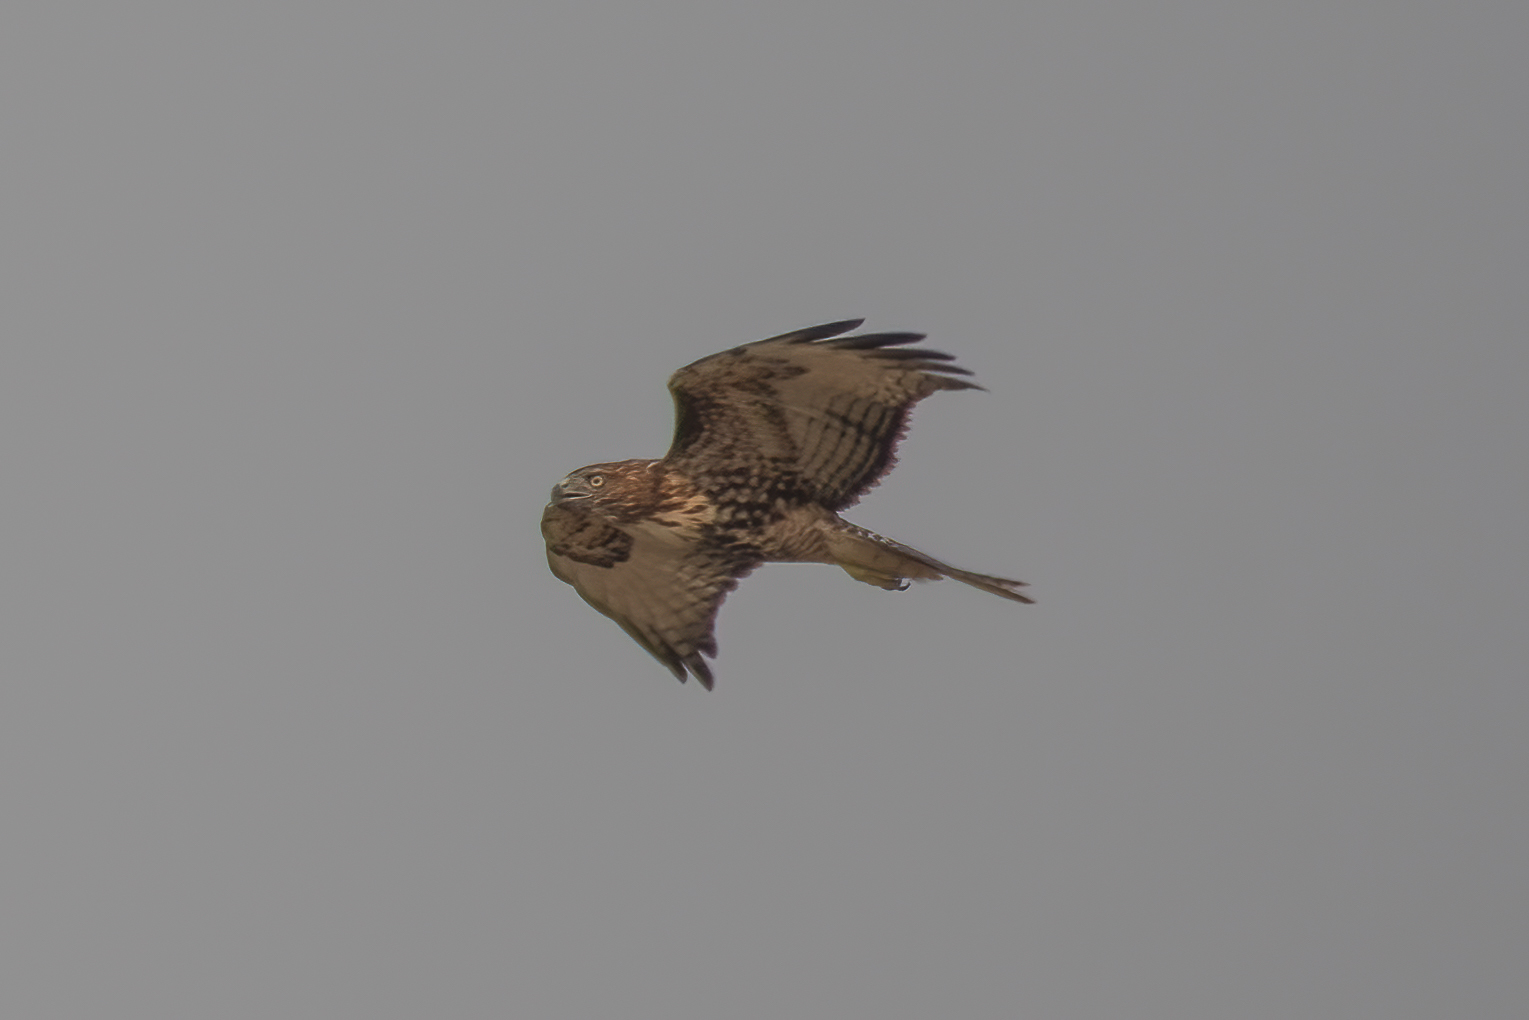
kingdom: Animalia
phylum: Chordata
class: Aves
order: Accipitriformes
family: Accipitridae
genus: Buteo
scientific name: Buteo jamaicensis
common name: Red-tailed hawk
